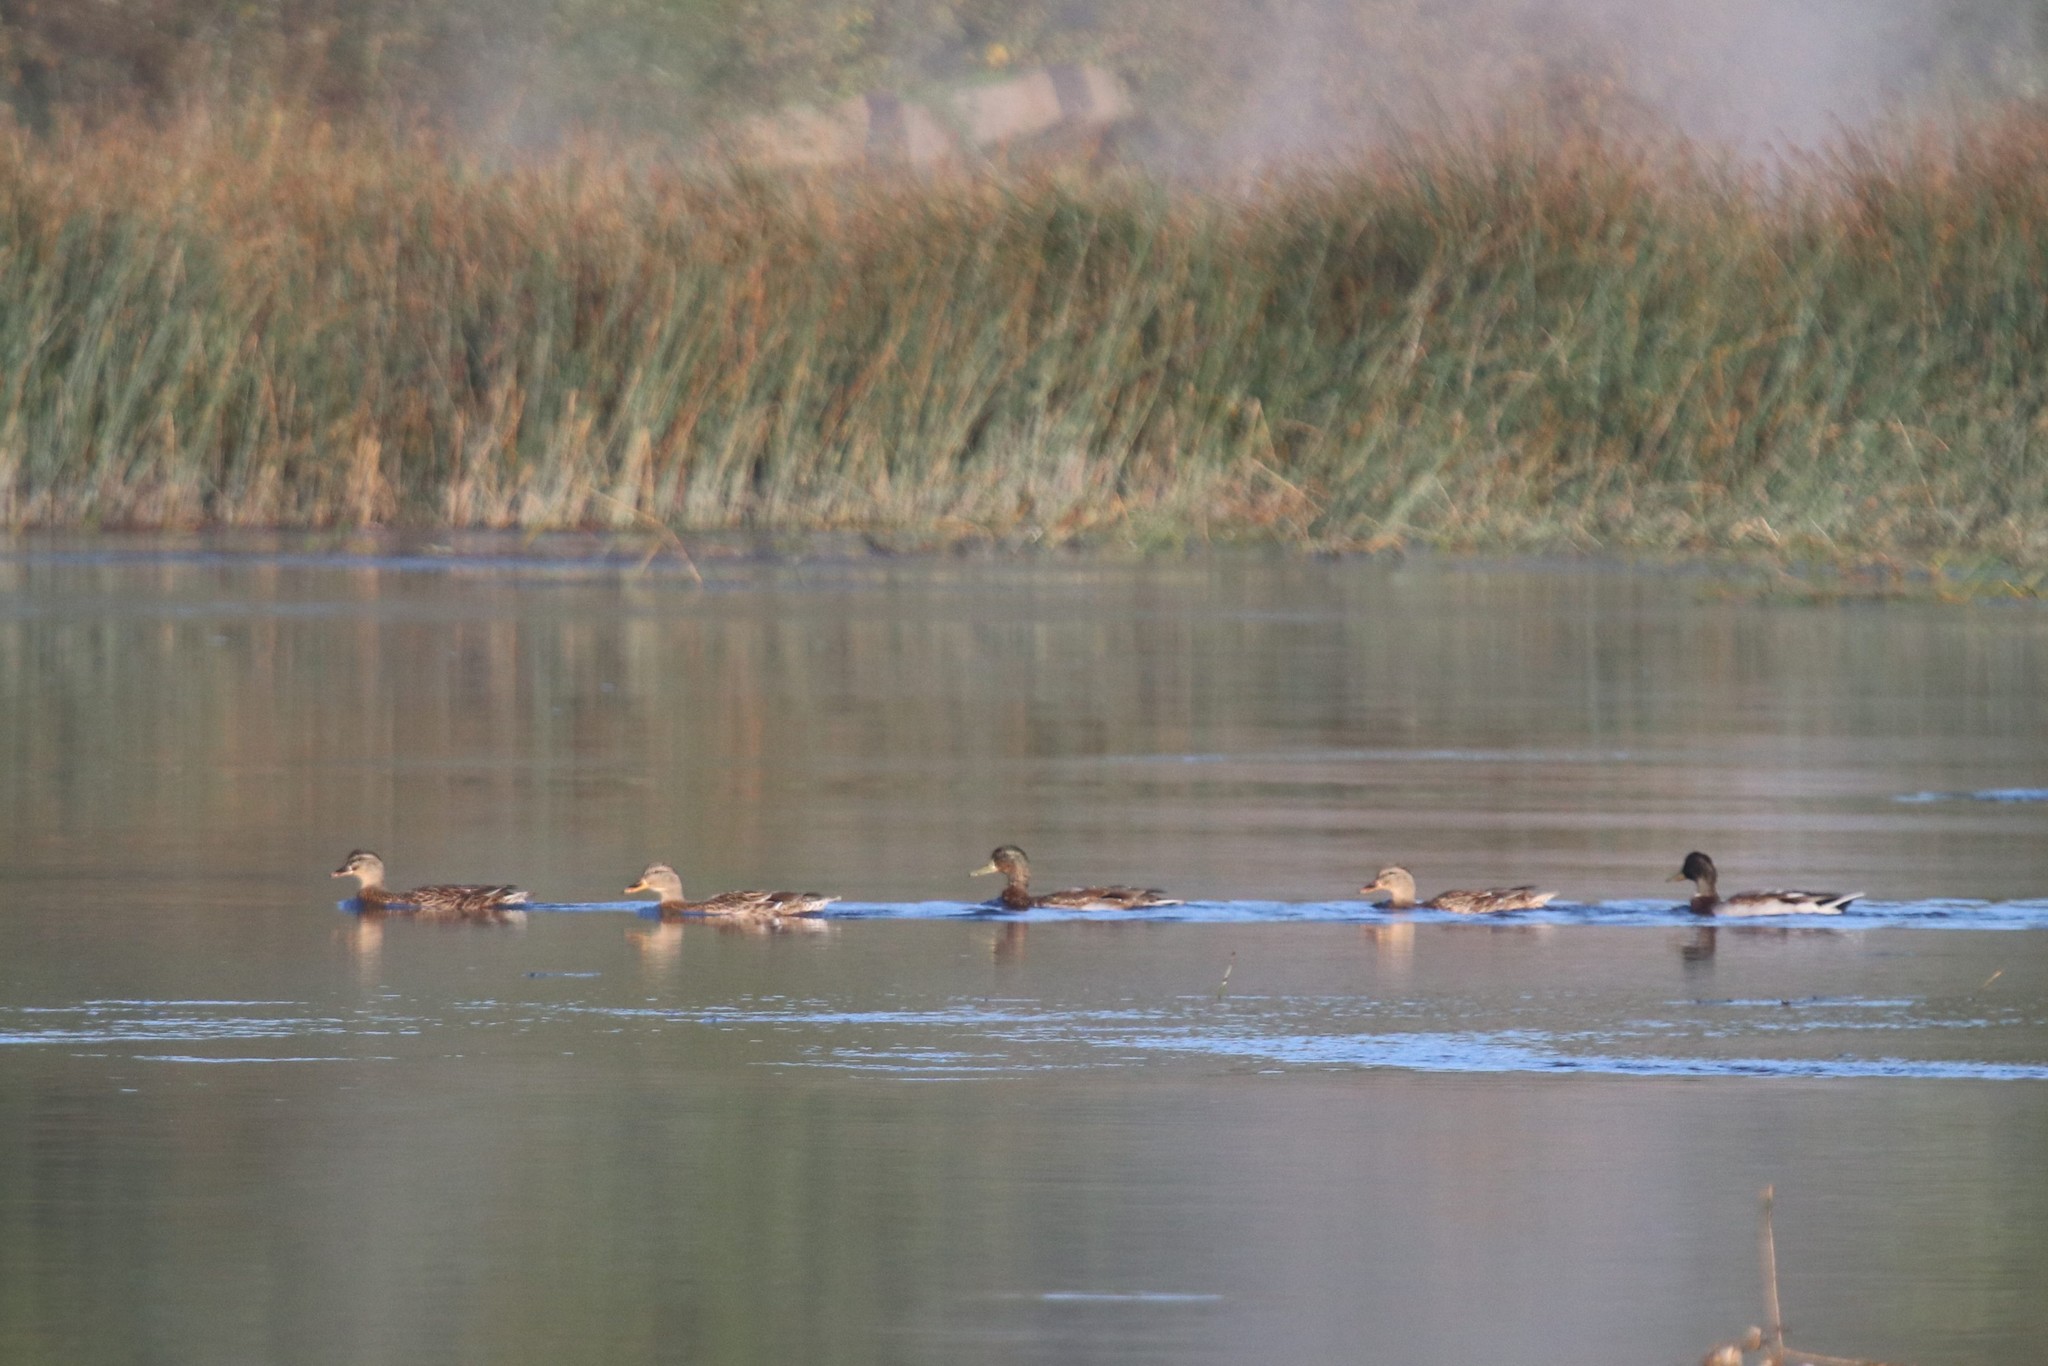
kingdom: Animalia
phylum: Chordata
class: Aves
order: Anseriformes
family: Anatidae
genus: Anas
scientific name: Anas platyrhynchos
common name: Mallard
